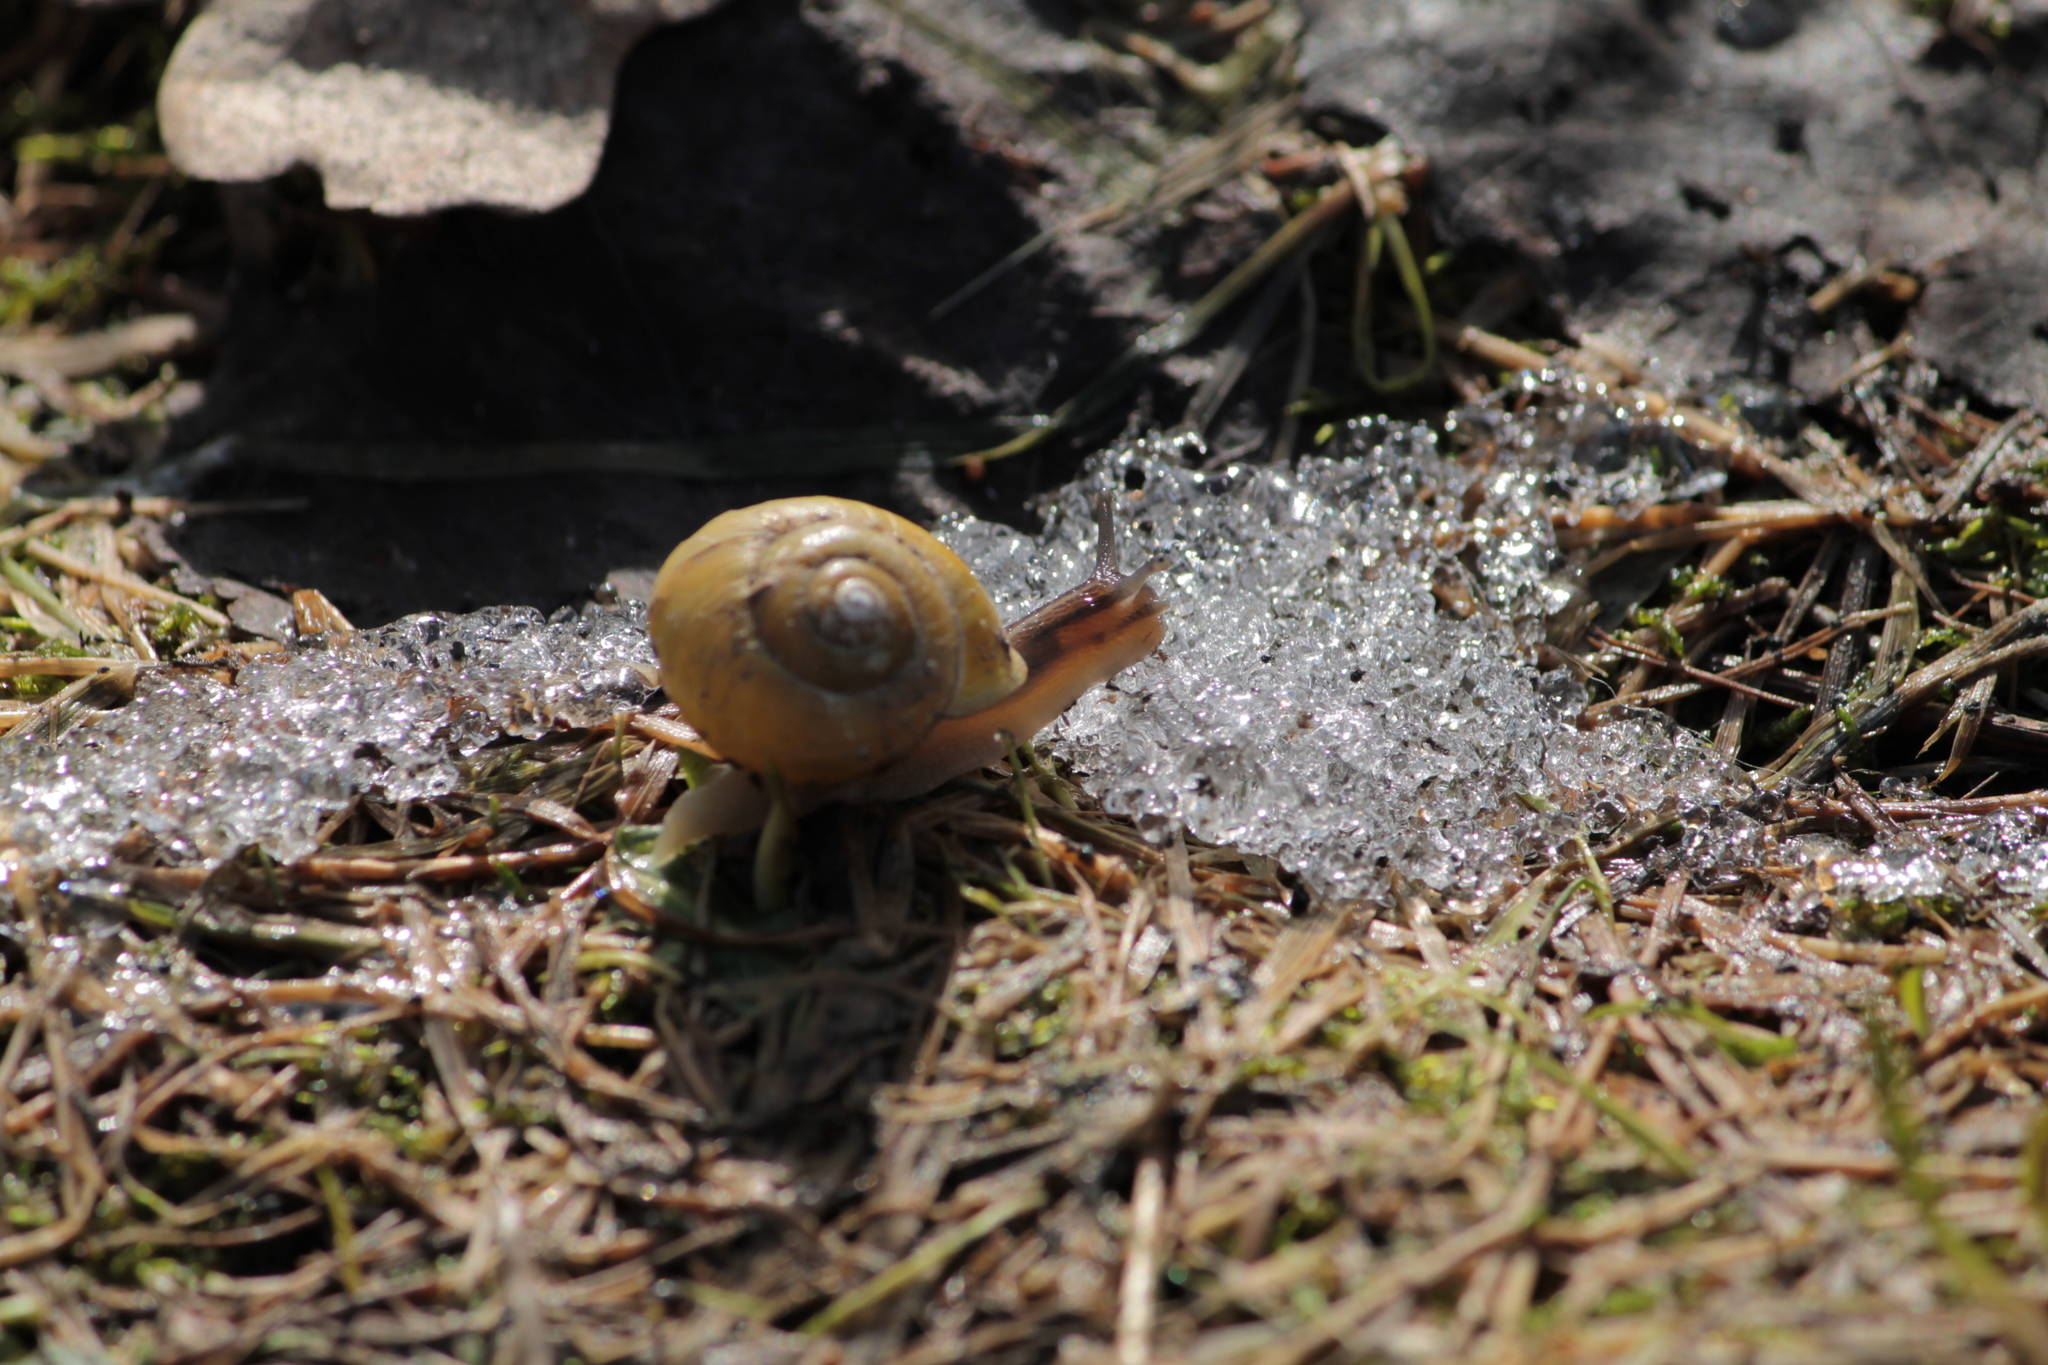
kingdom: Animalia
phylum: Mollusca
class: Gastropoda
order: Stylommatophora
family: Helicidae
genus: Cepaea
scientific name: Cepaea hortensis
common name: White-lip gardensnail
